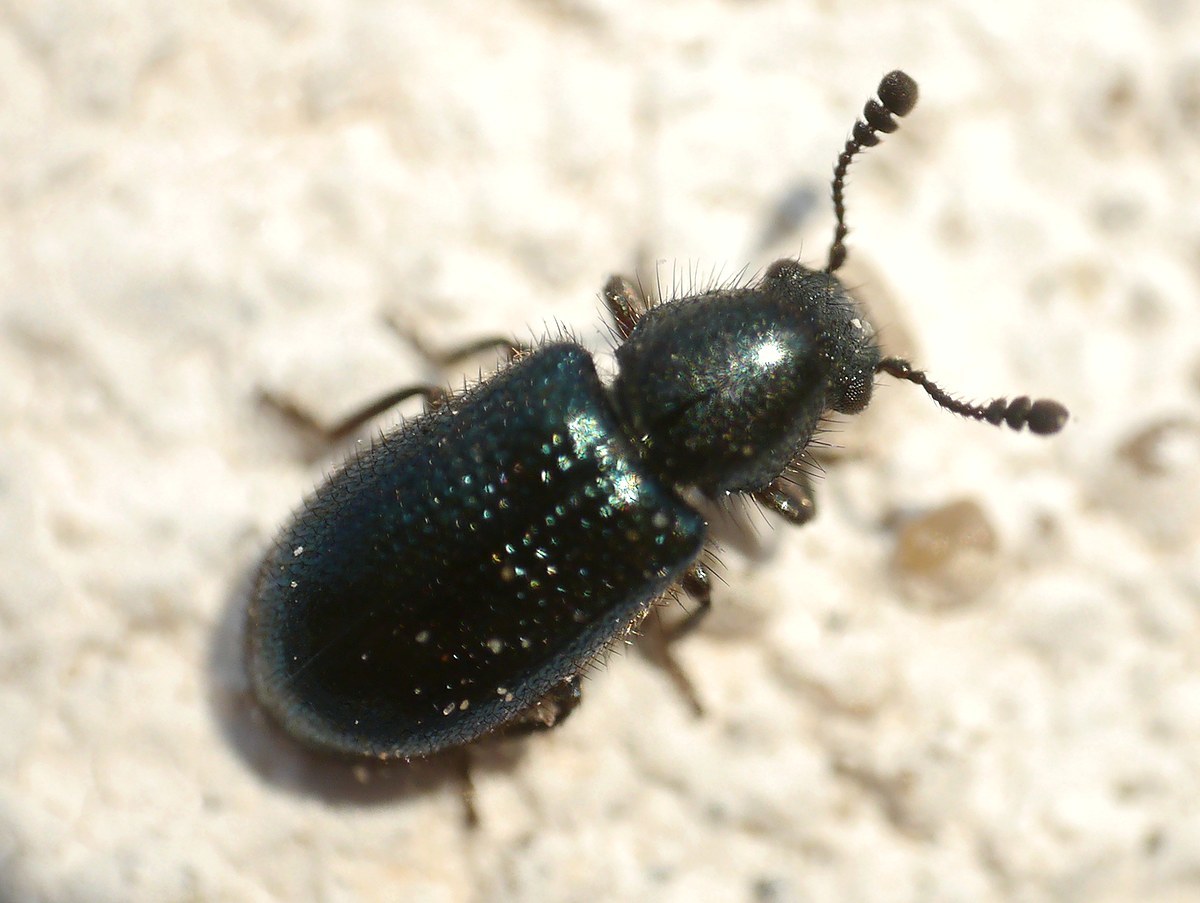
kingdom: Animalia
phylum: Arthropoda
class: Insecta
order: Coleoptera
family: Cleridae
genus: Necrobia
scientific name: Necrobia violacea
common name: Violet checkered beetle
